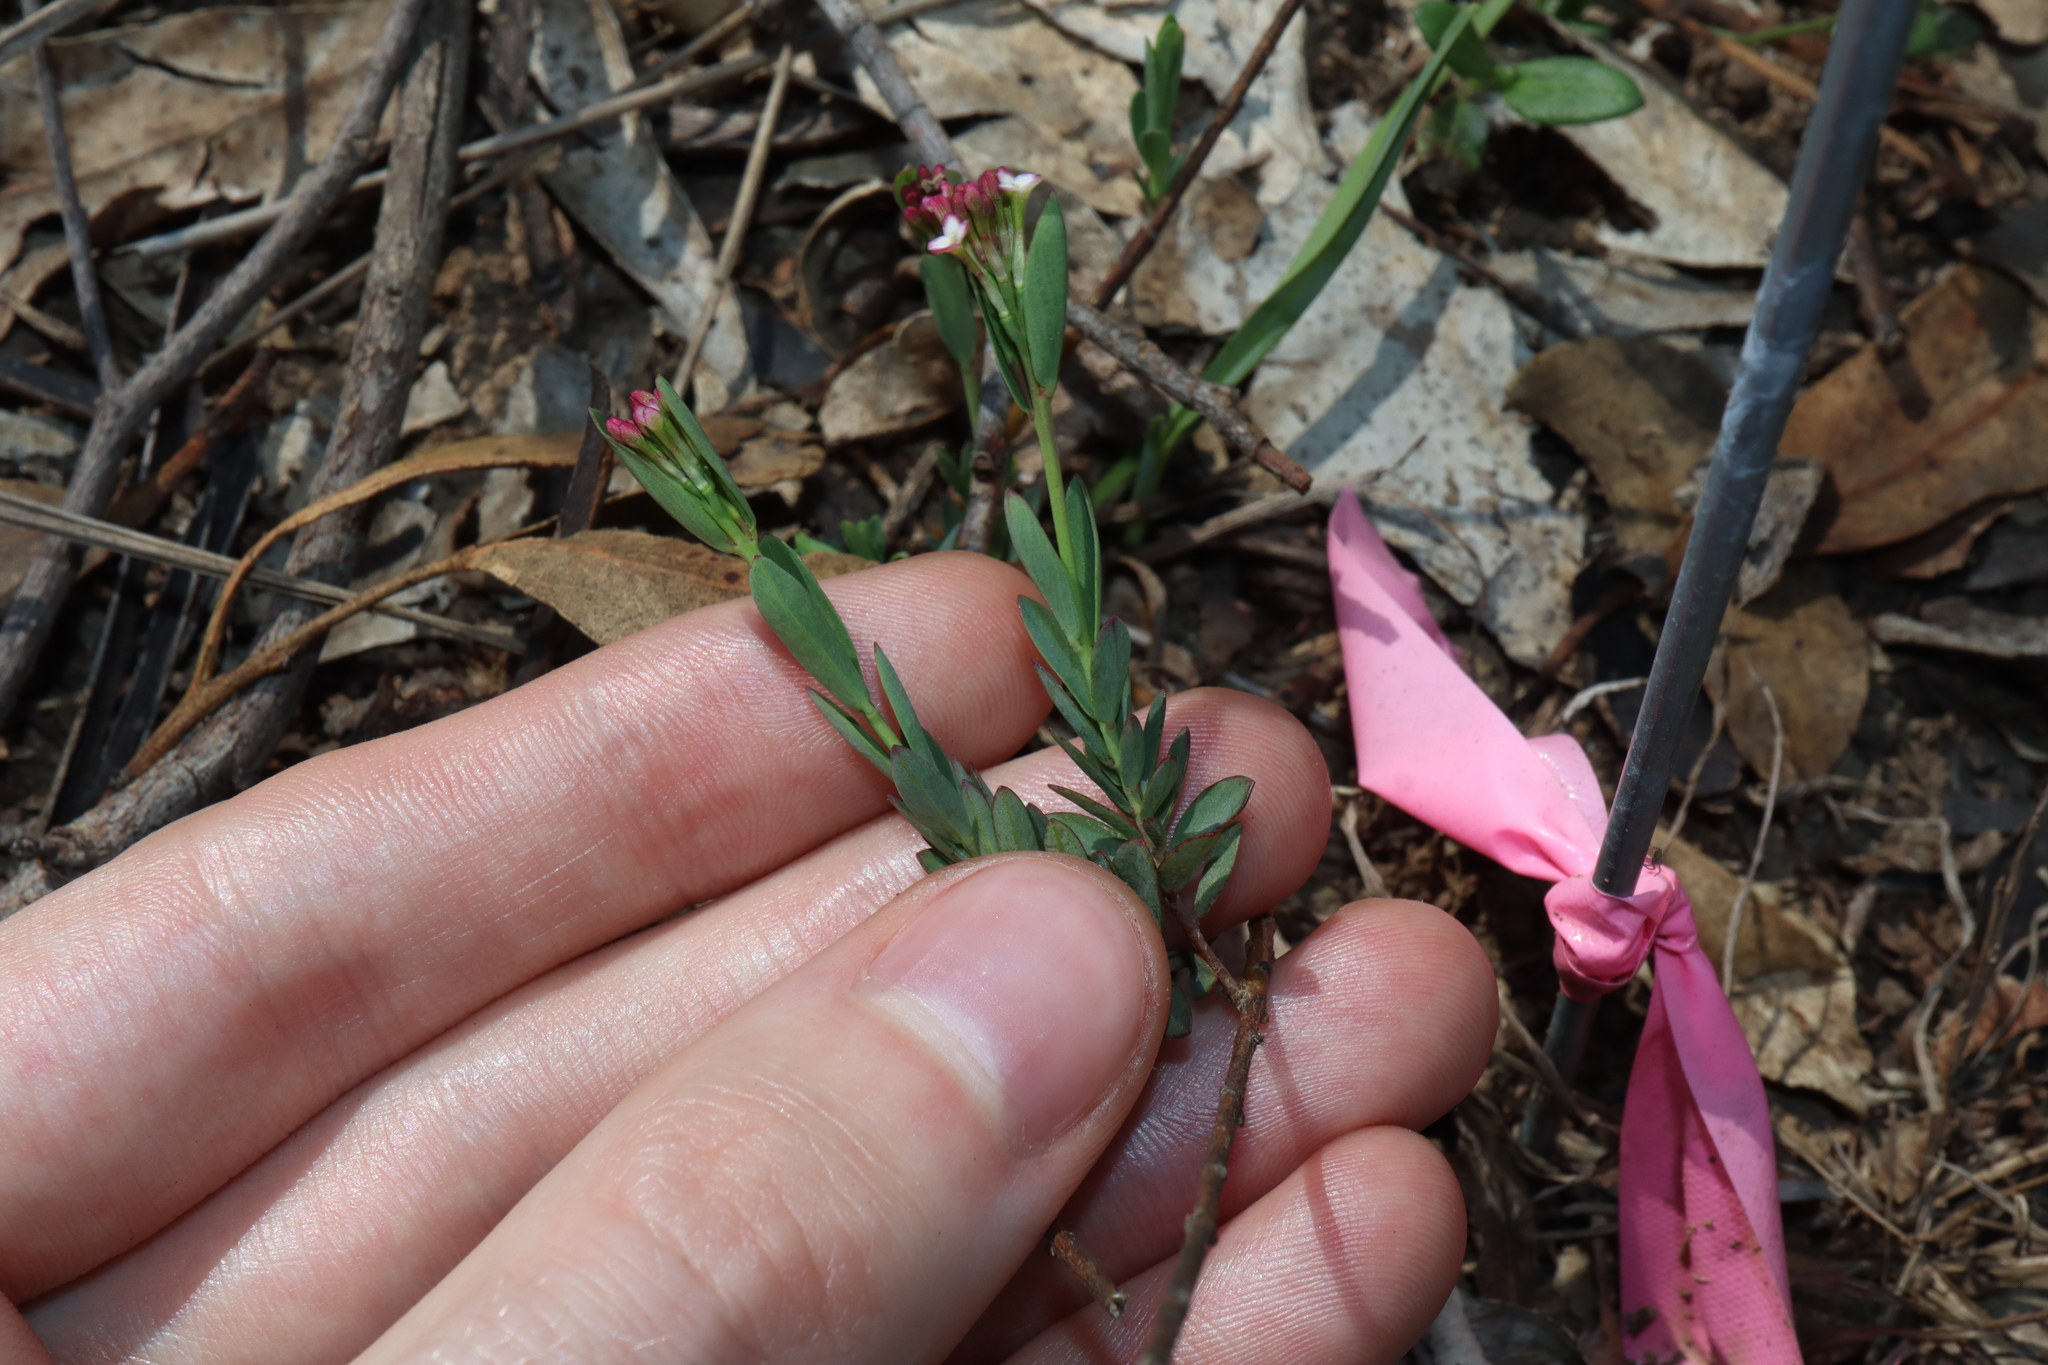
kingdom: Plantae
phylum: Tracheophyta
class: Magnoliopsida
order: Malvales
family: Thymelaeaceae
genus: Pimelea
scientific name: Pimelea spicata
